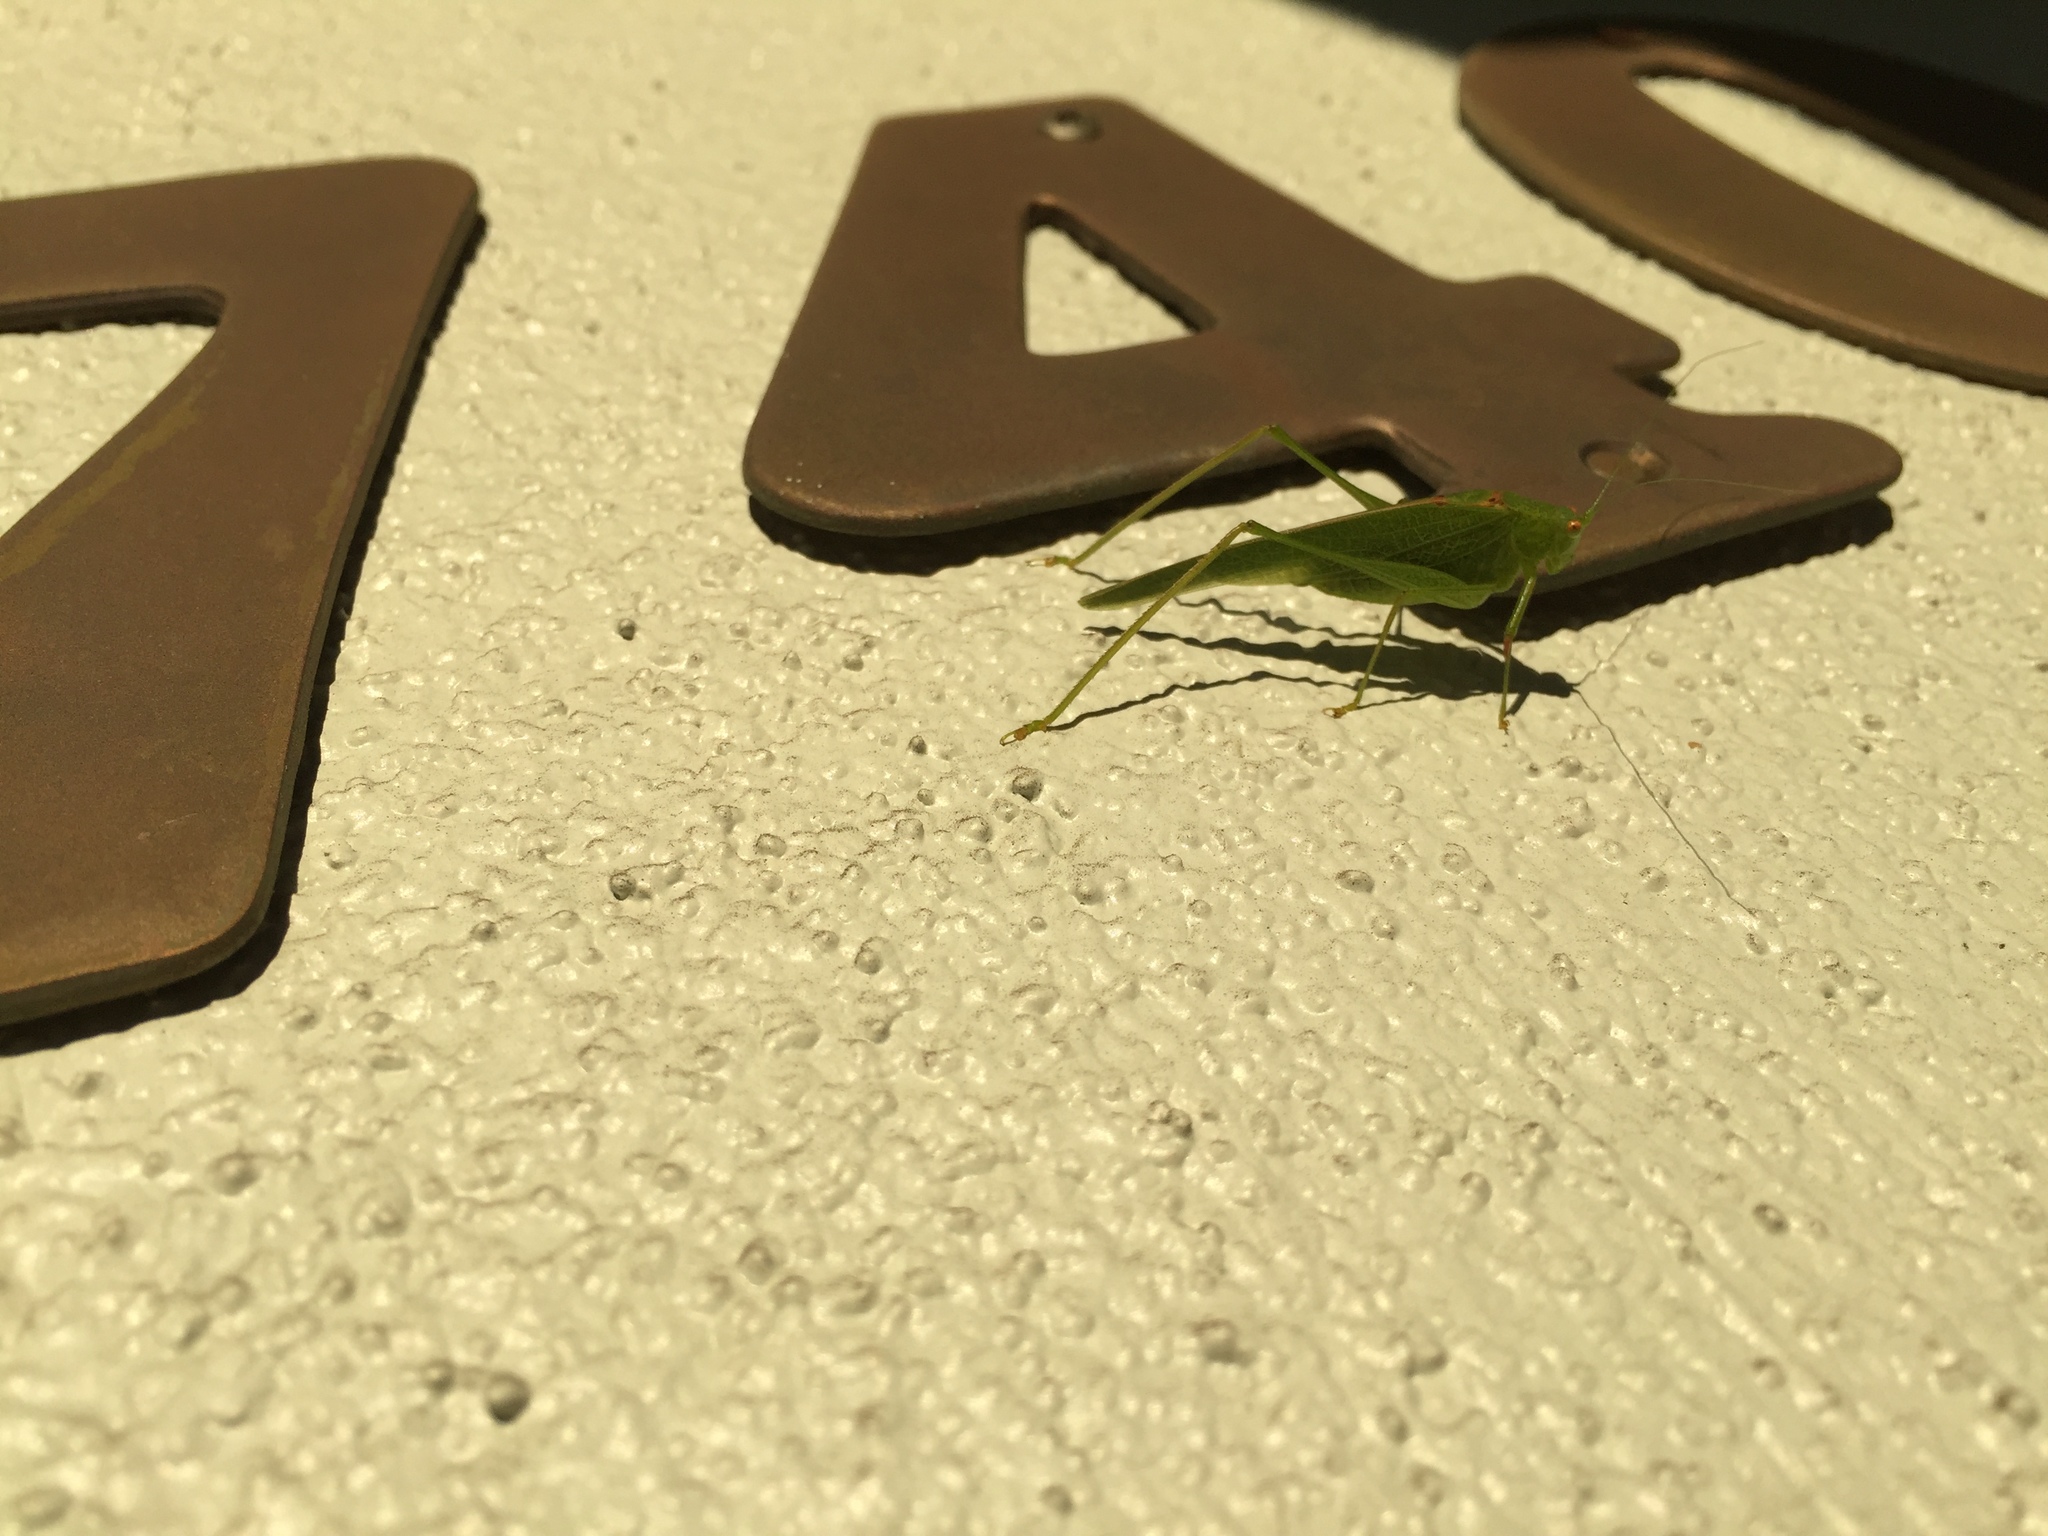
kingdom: Animalia
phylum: Arthropoda
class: Insecta
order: Orthoptera
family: Tettigoniidae
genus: Phaneroptera
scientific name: Phaneroptera nana
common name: Southern sickle bush-cricket
